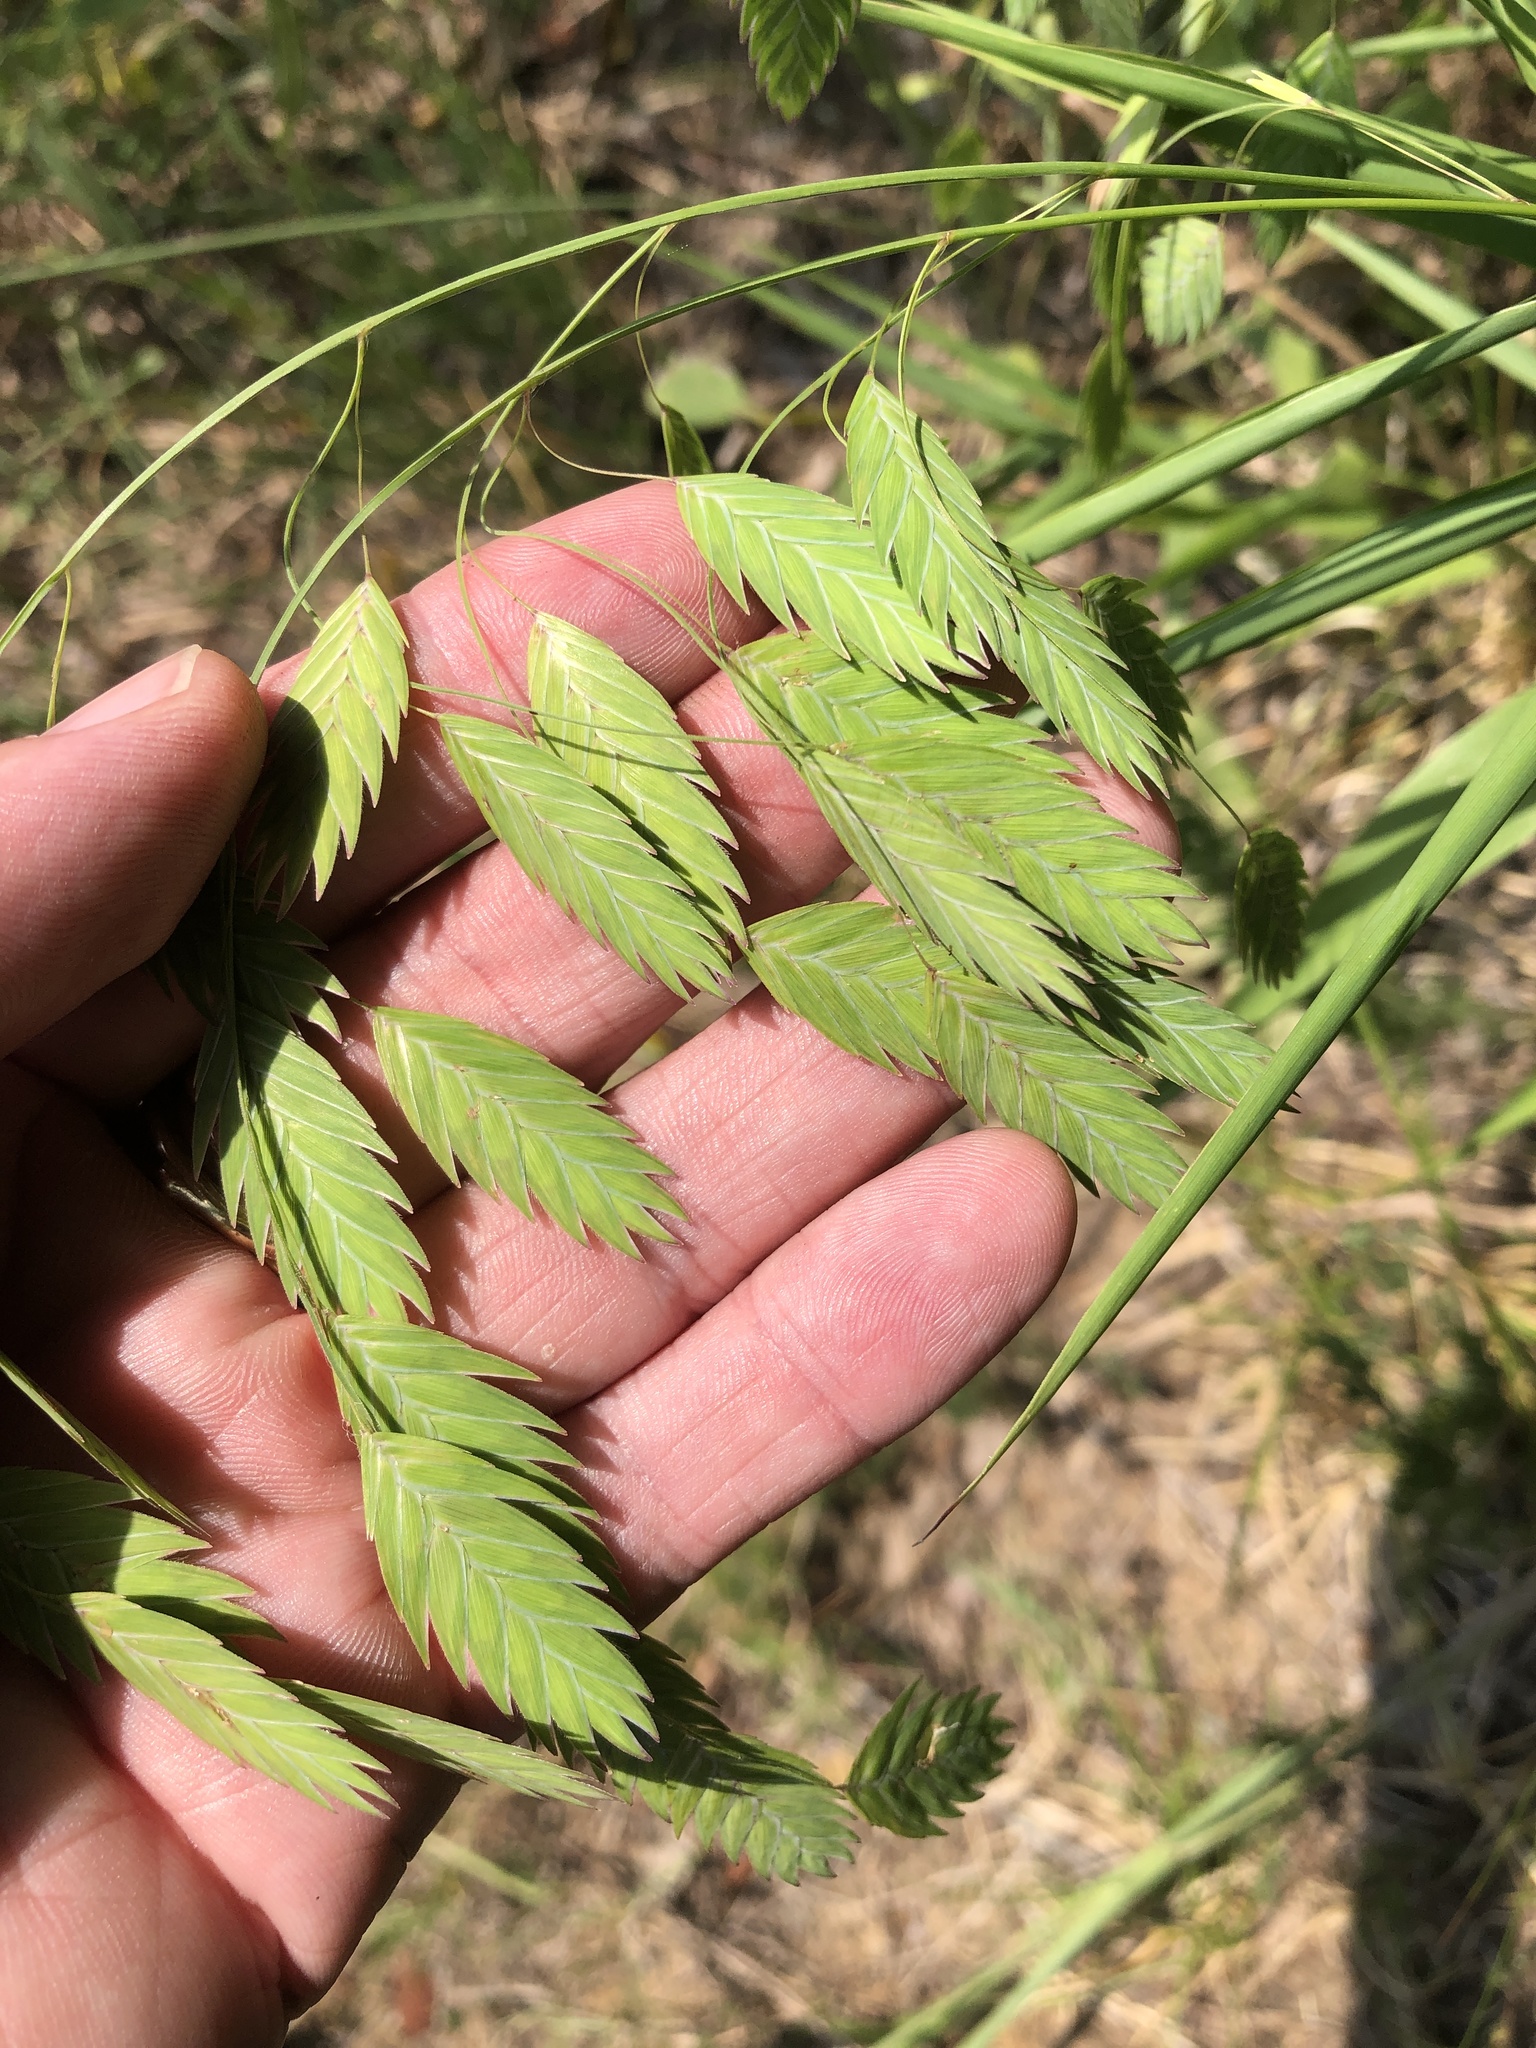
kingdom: Plantae
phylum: Tracheophyta
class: Liliopsida
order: Poales
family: Poaceae
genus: Chasmanthium
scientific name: Chasmanthium latifolium
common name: Broad-leaved chasmanthium
